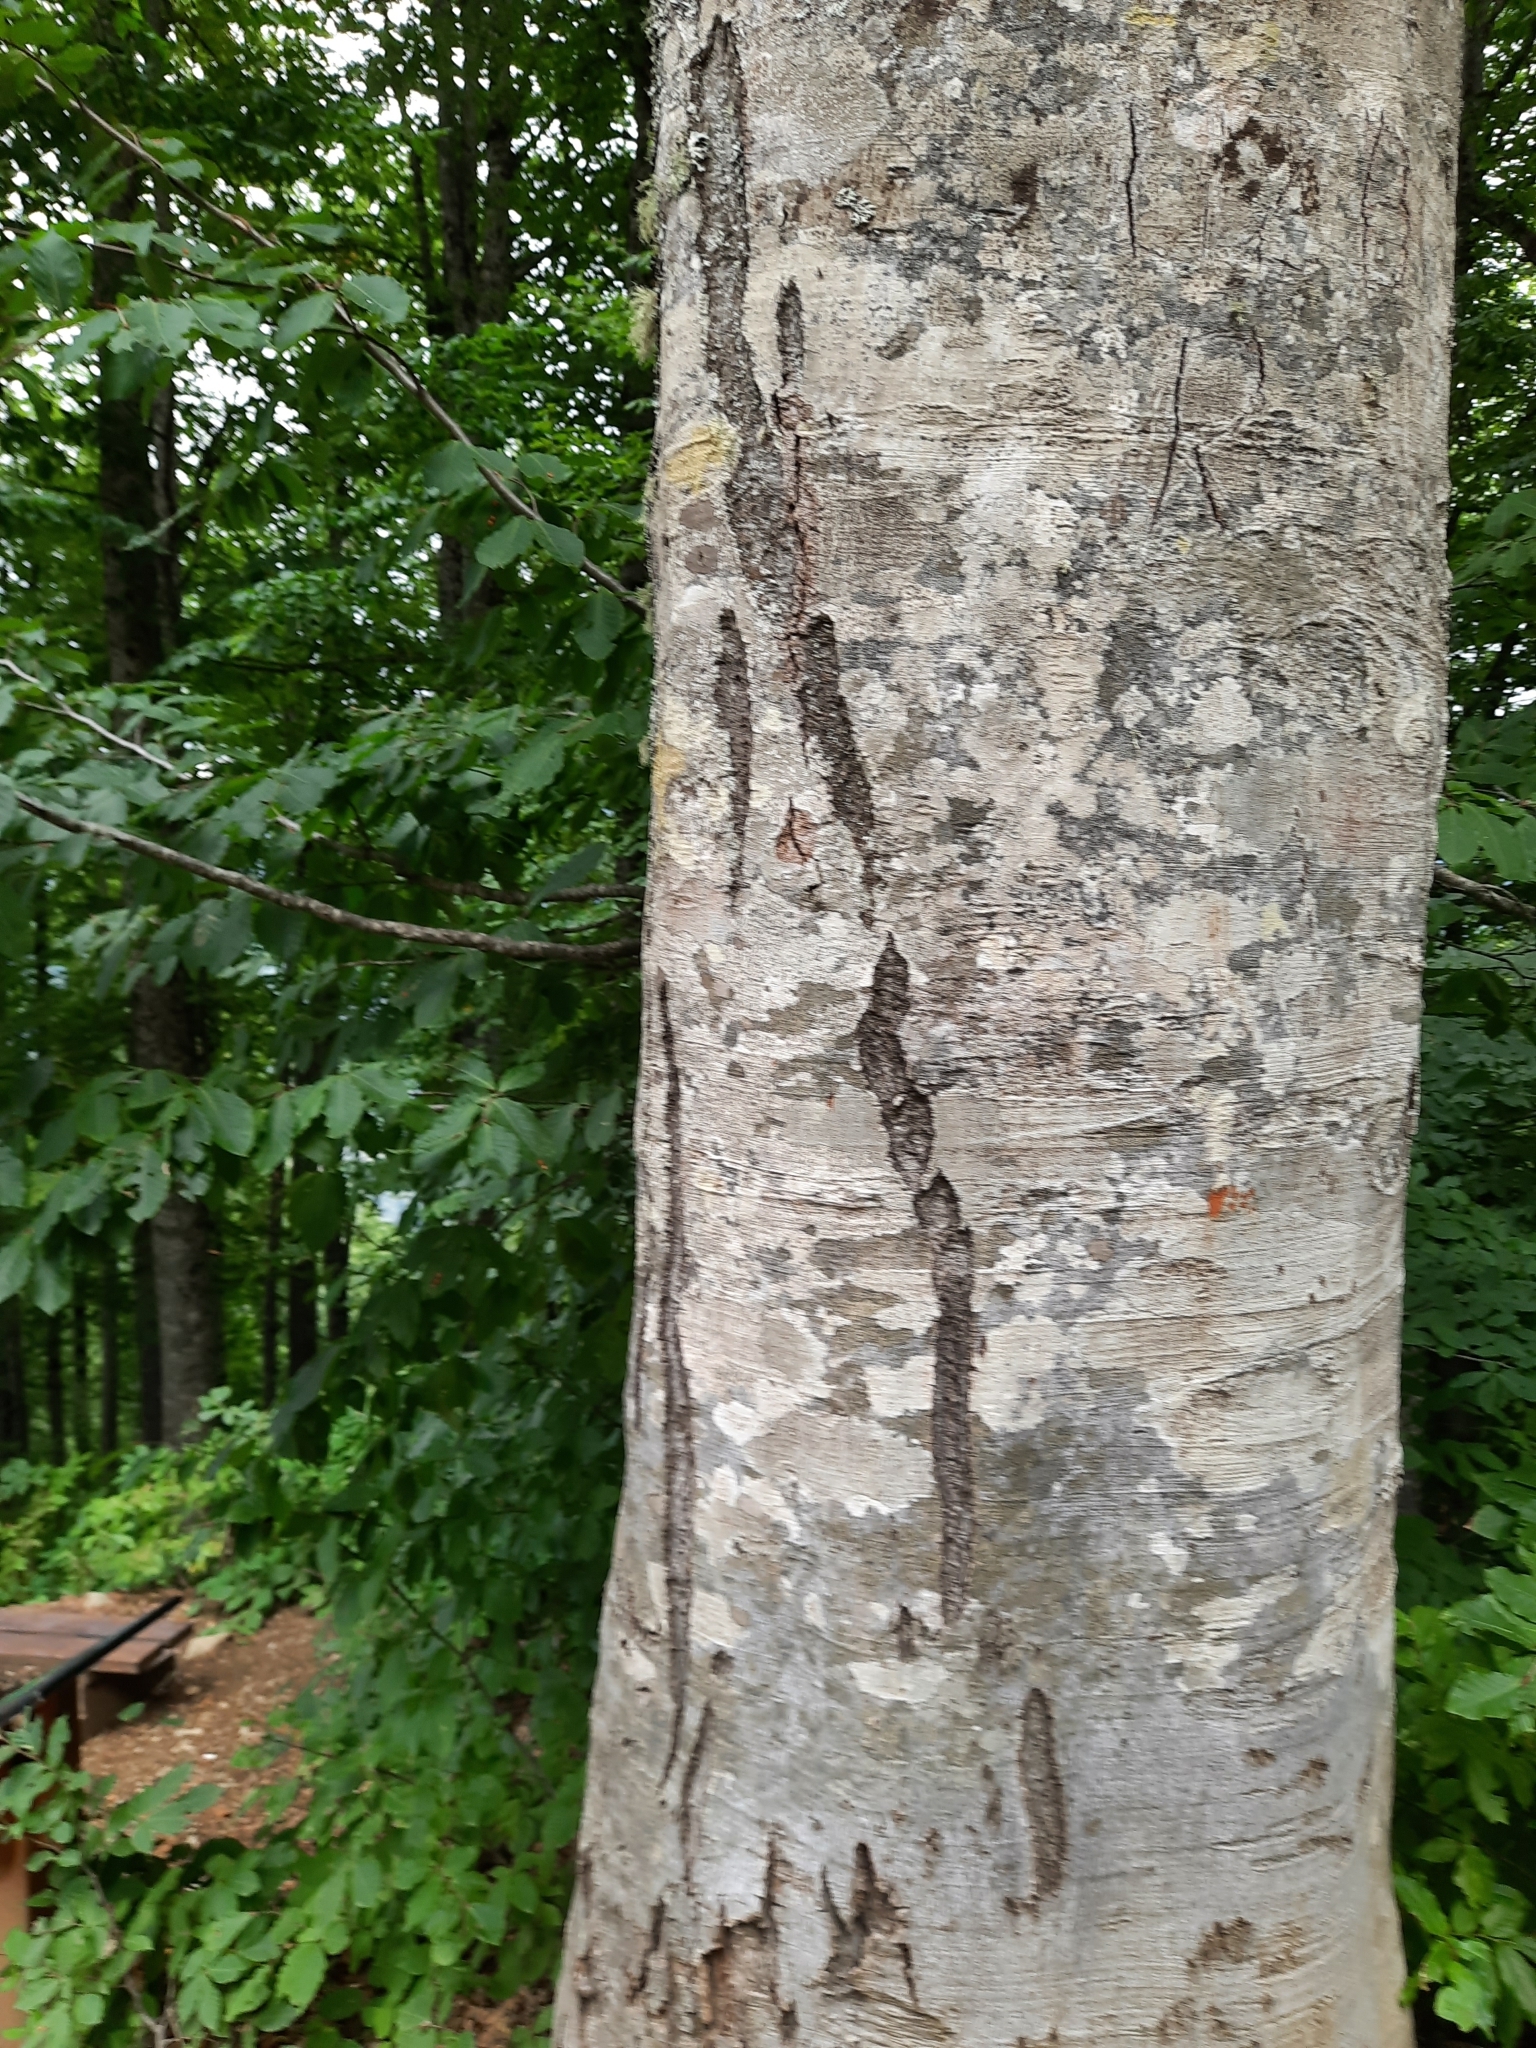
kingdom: Plantae
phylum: Tracheophyta
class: Magnoliopsida
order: Fagales
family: Fagaceae
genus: Fagus
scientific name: Fagus orientalis
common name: Oriental beech
